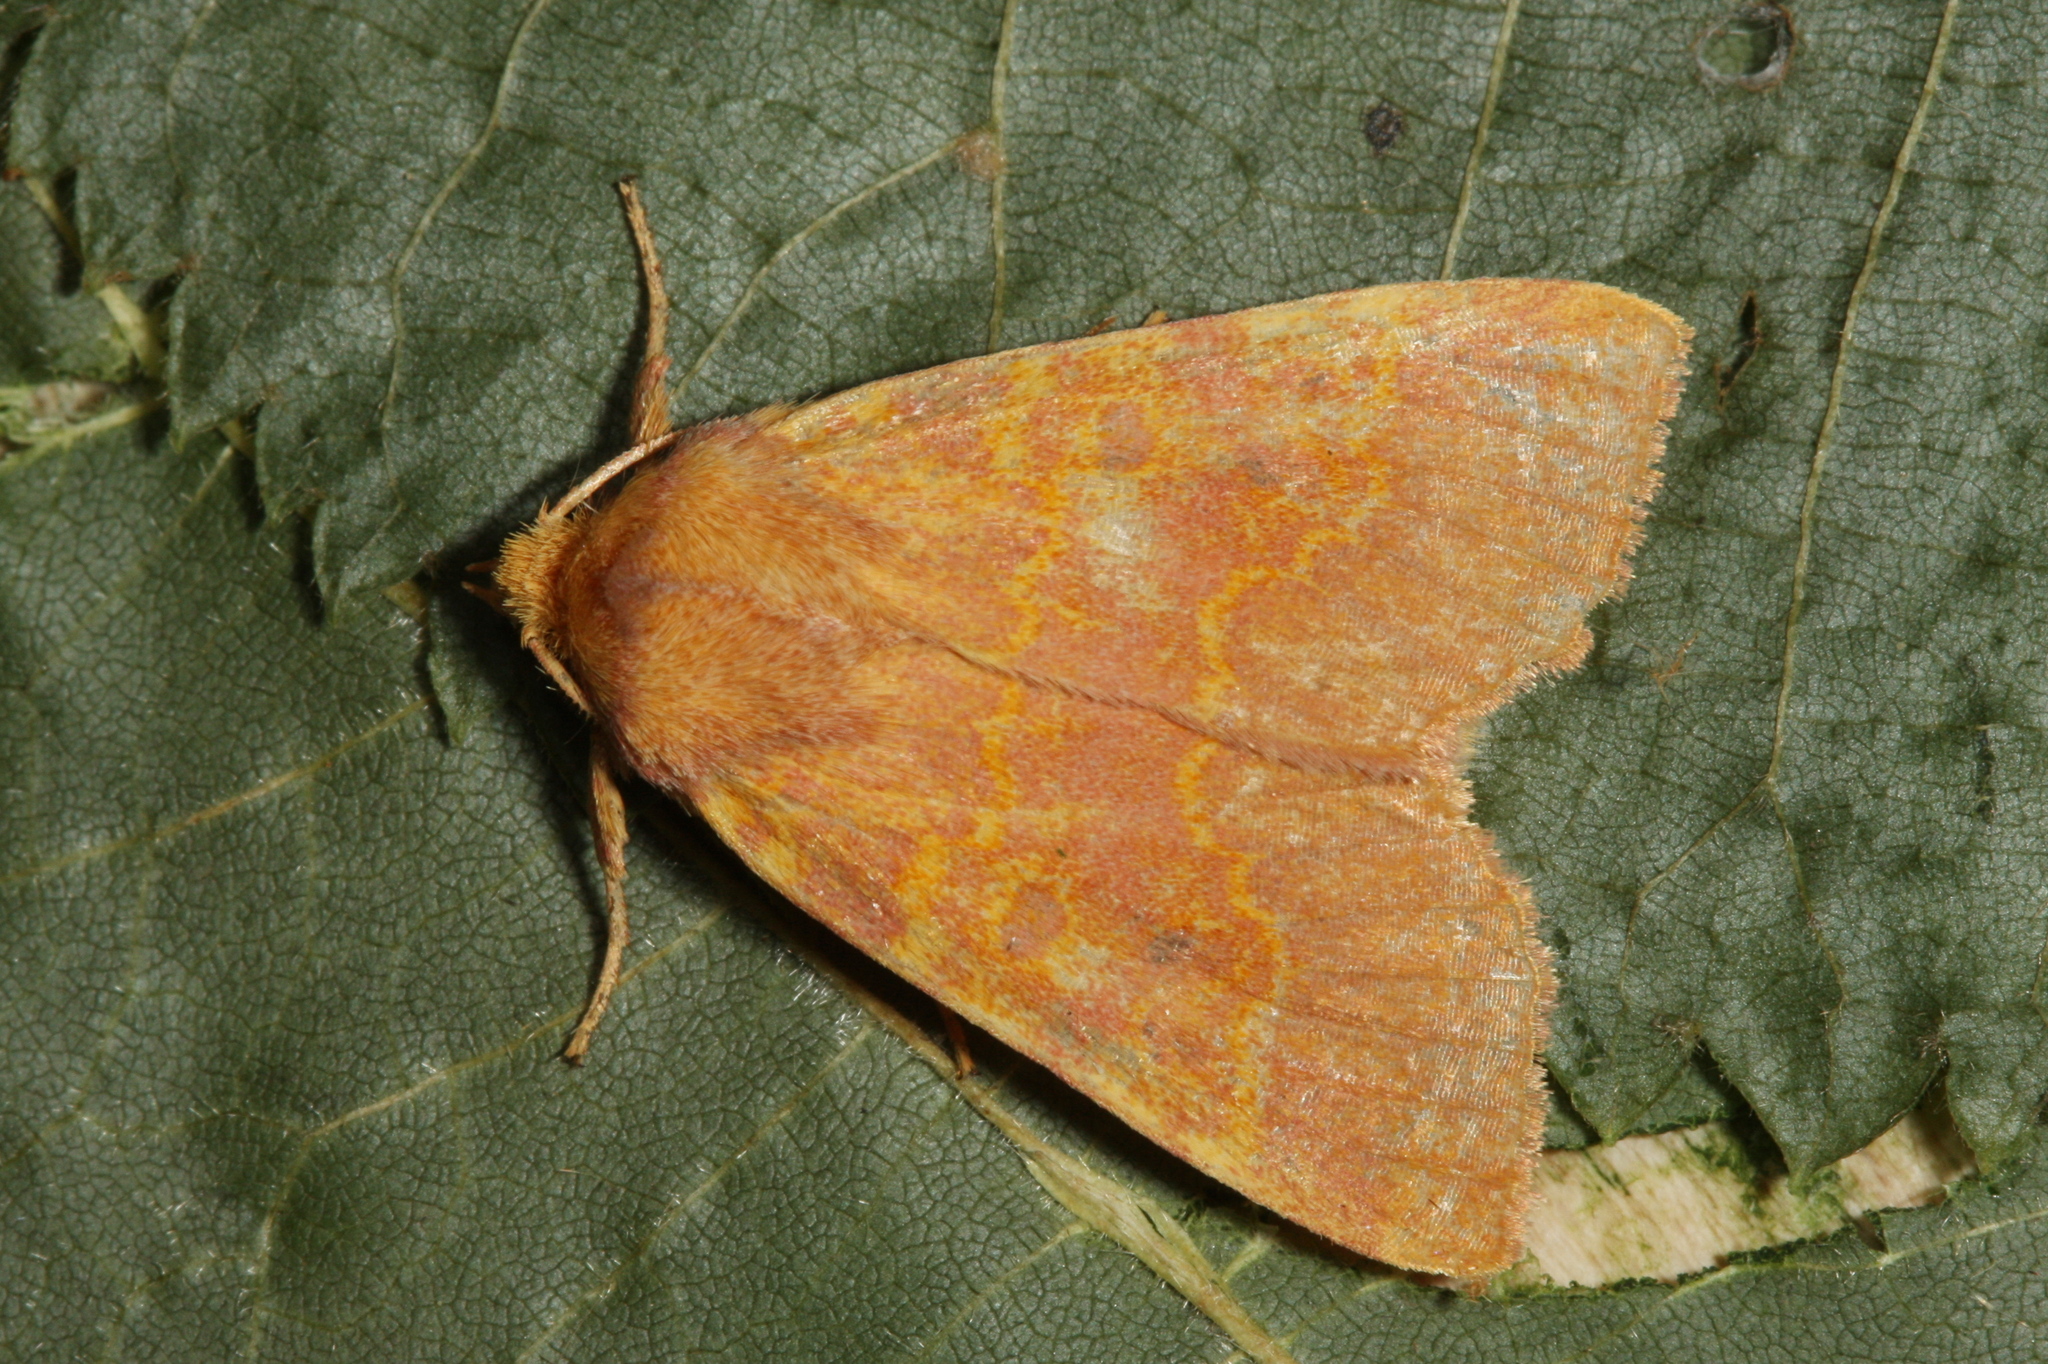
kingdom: Animalia
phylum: Arthropoda
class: Insecta
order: Lepidoptera
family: Noctuidae
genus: Tiliacea
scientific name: Tiliacea aurago
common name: Barred sallow
